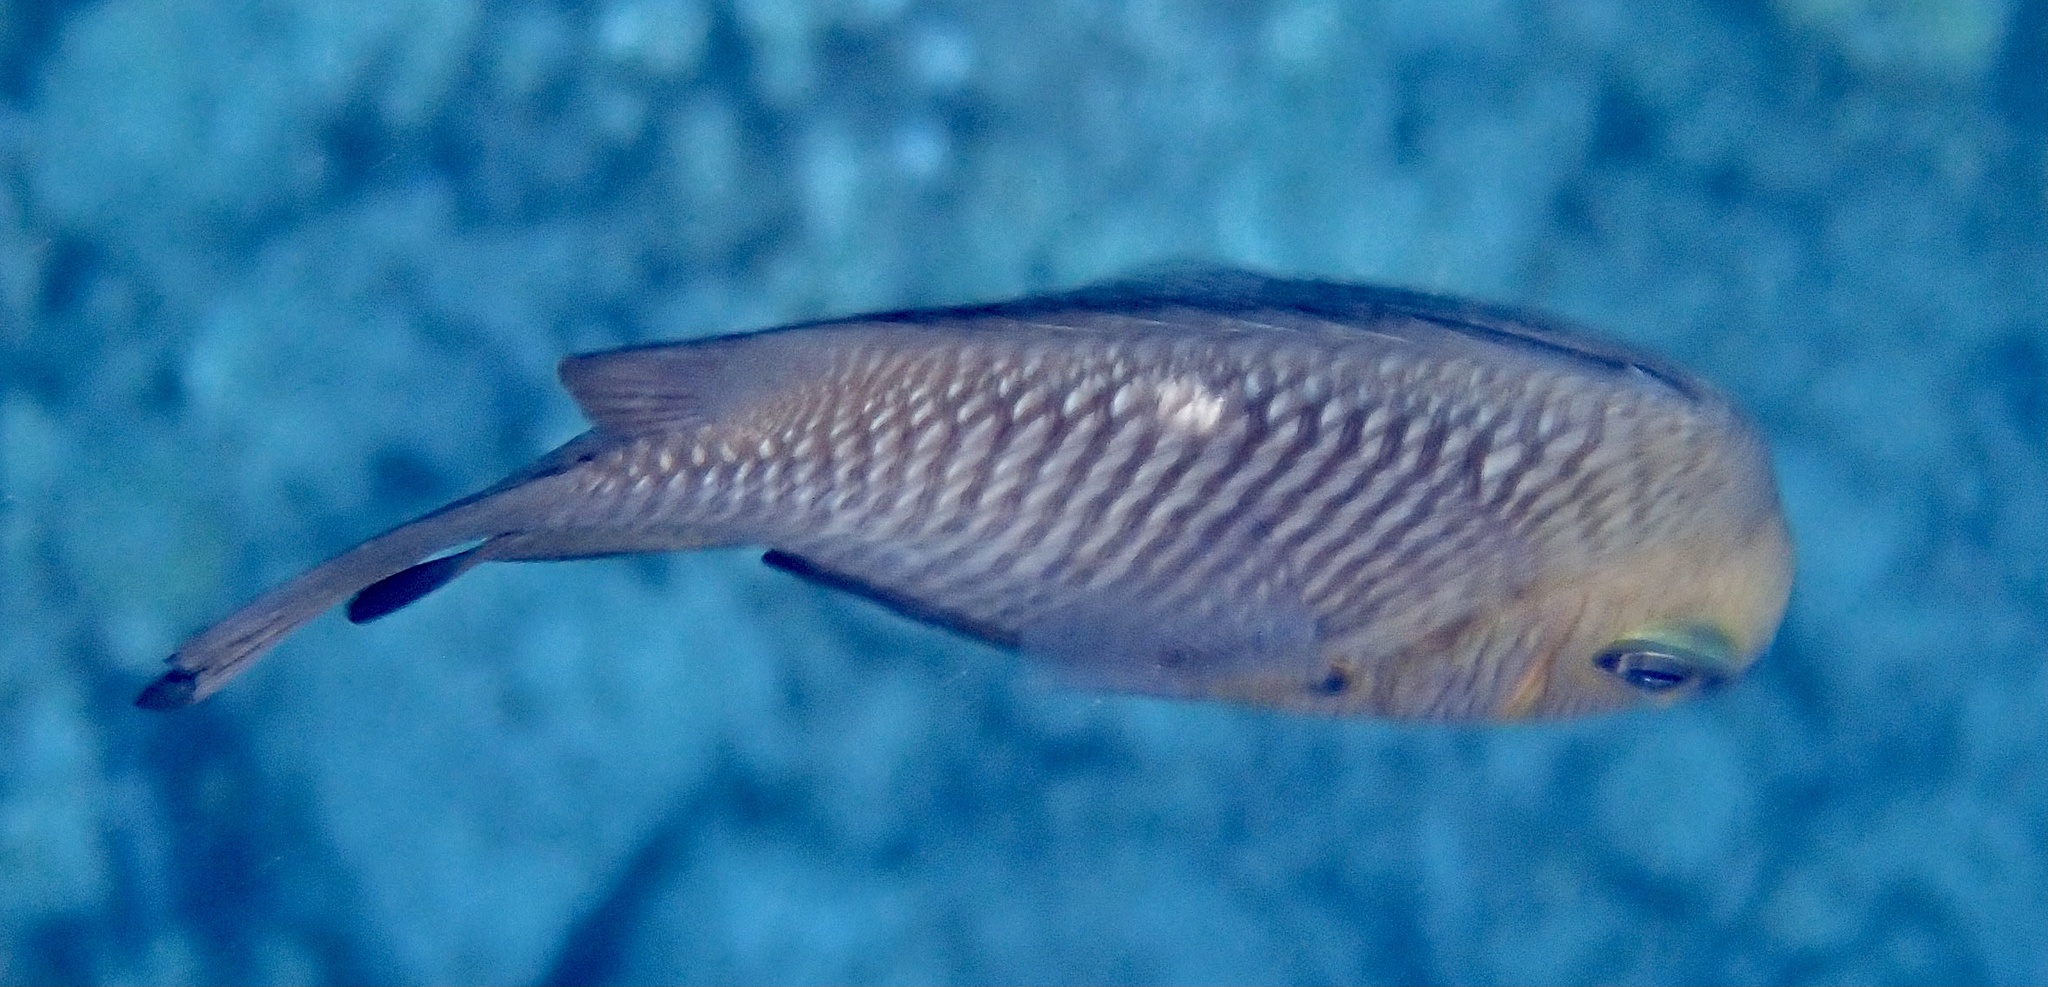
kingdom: Animalia
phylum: Chordata
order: Perciformes
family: Pomacentridae
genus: Dascyllus
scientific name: Dascyllus trimaculatus
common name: Threespot dascyllus
